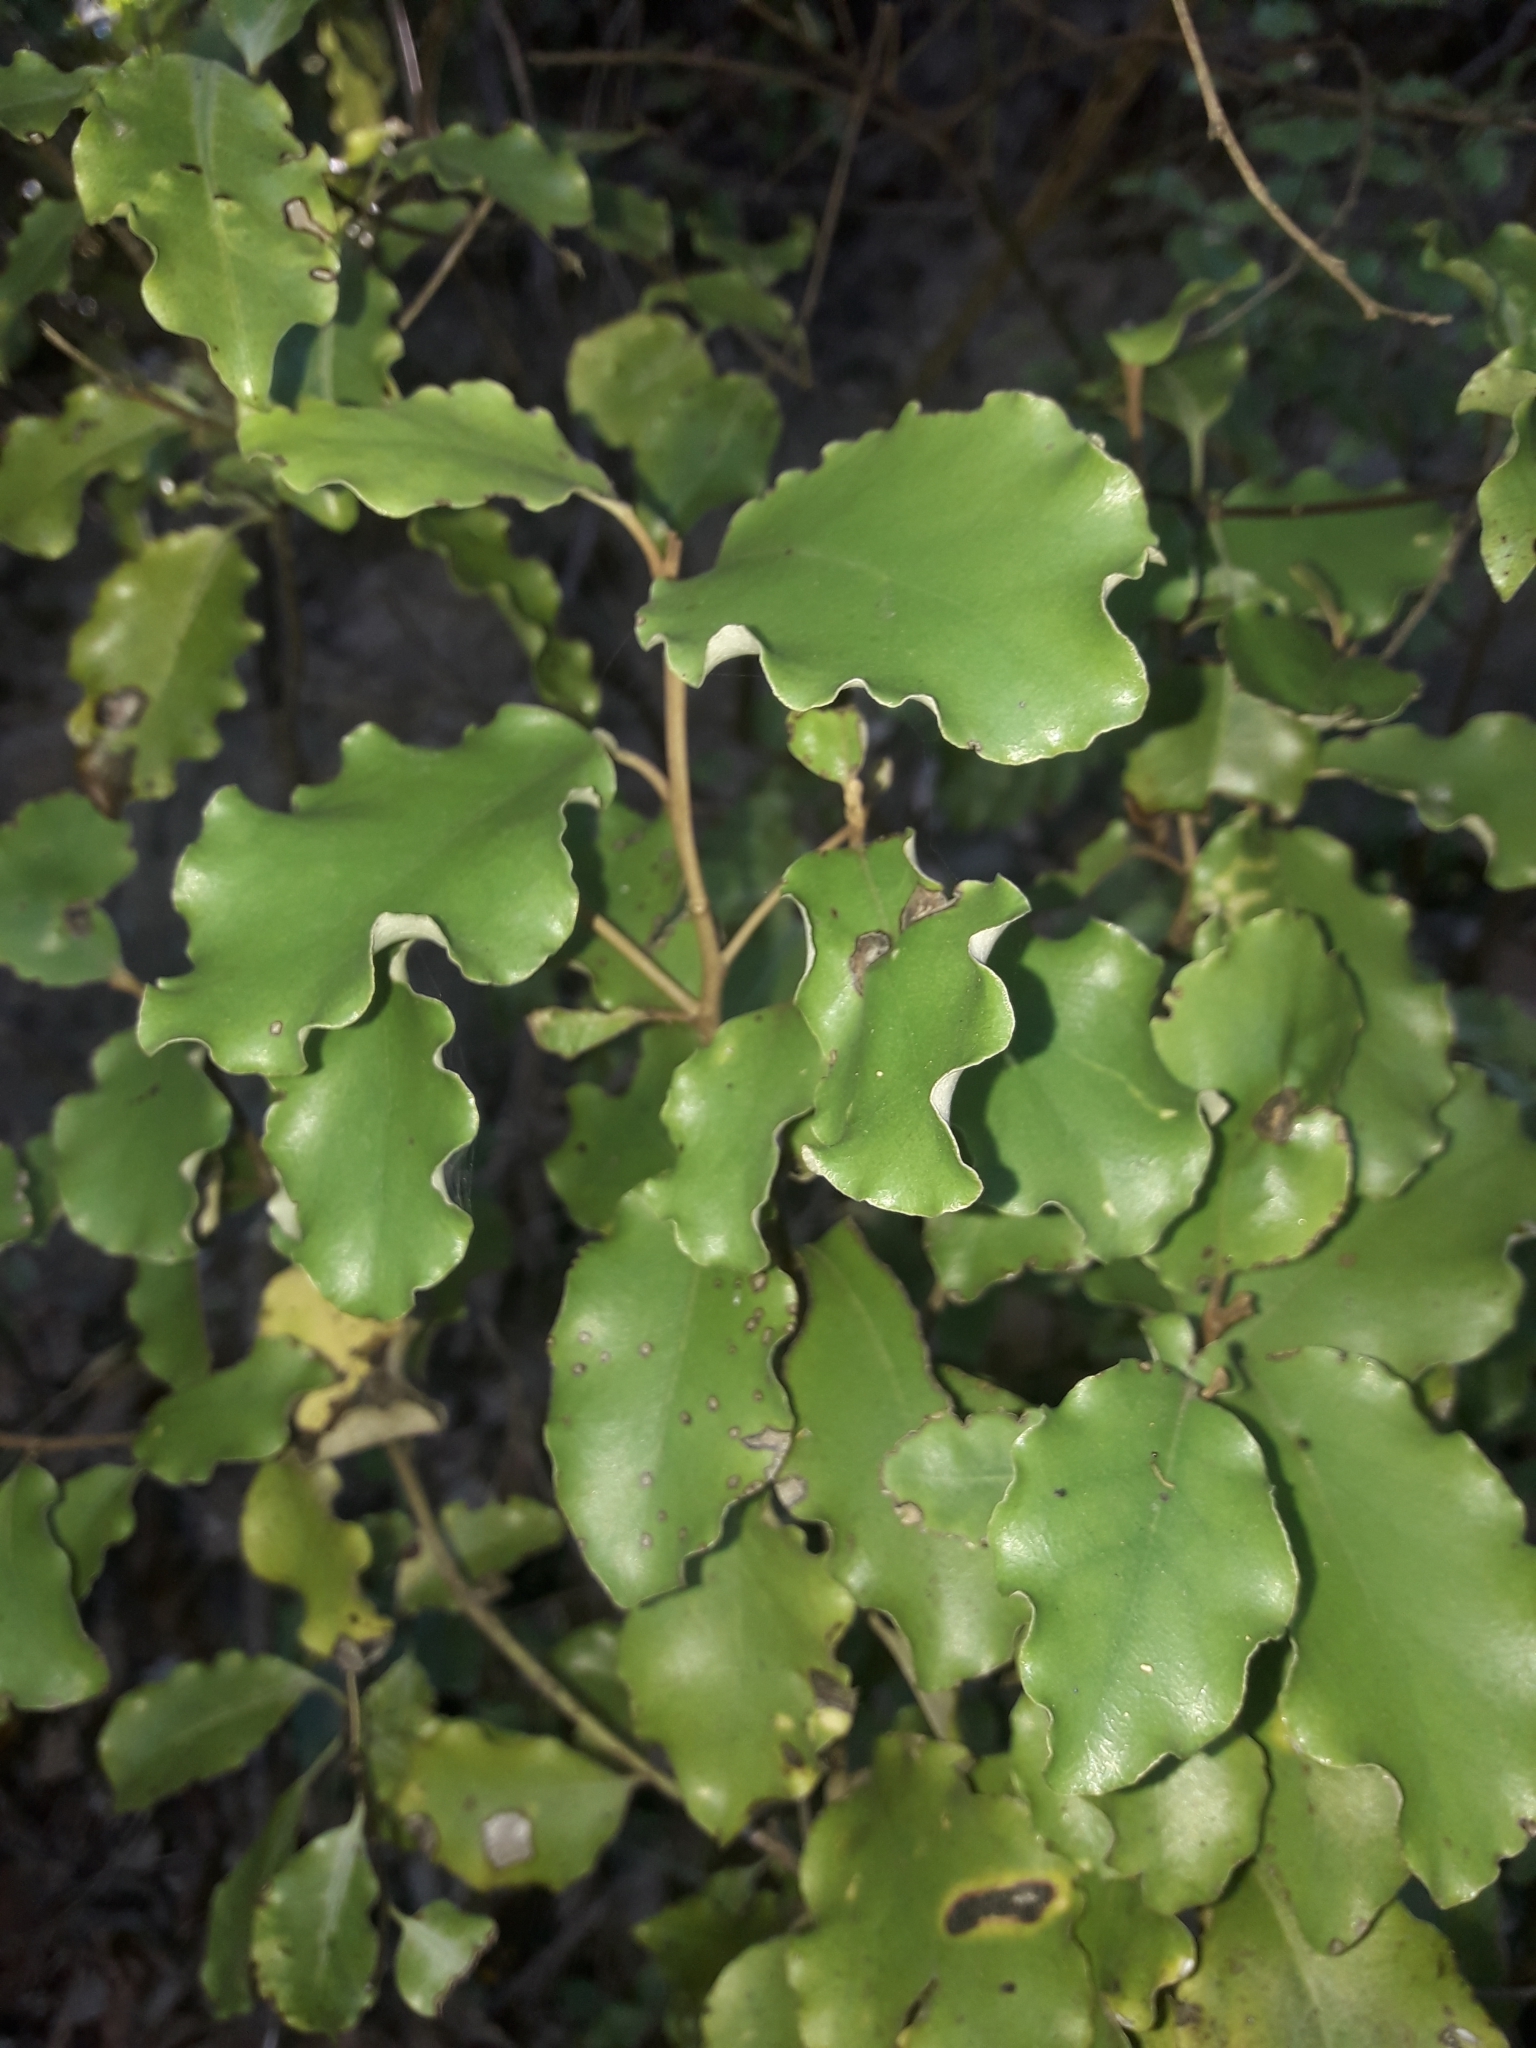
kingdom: Plantae
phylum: Tracheophyta
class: Magnoliopsida
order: Asterales
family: Asteraceae
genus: Olearia
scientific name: Olearia paniculata
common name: Akiraho
